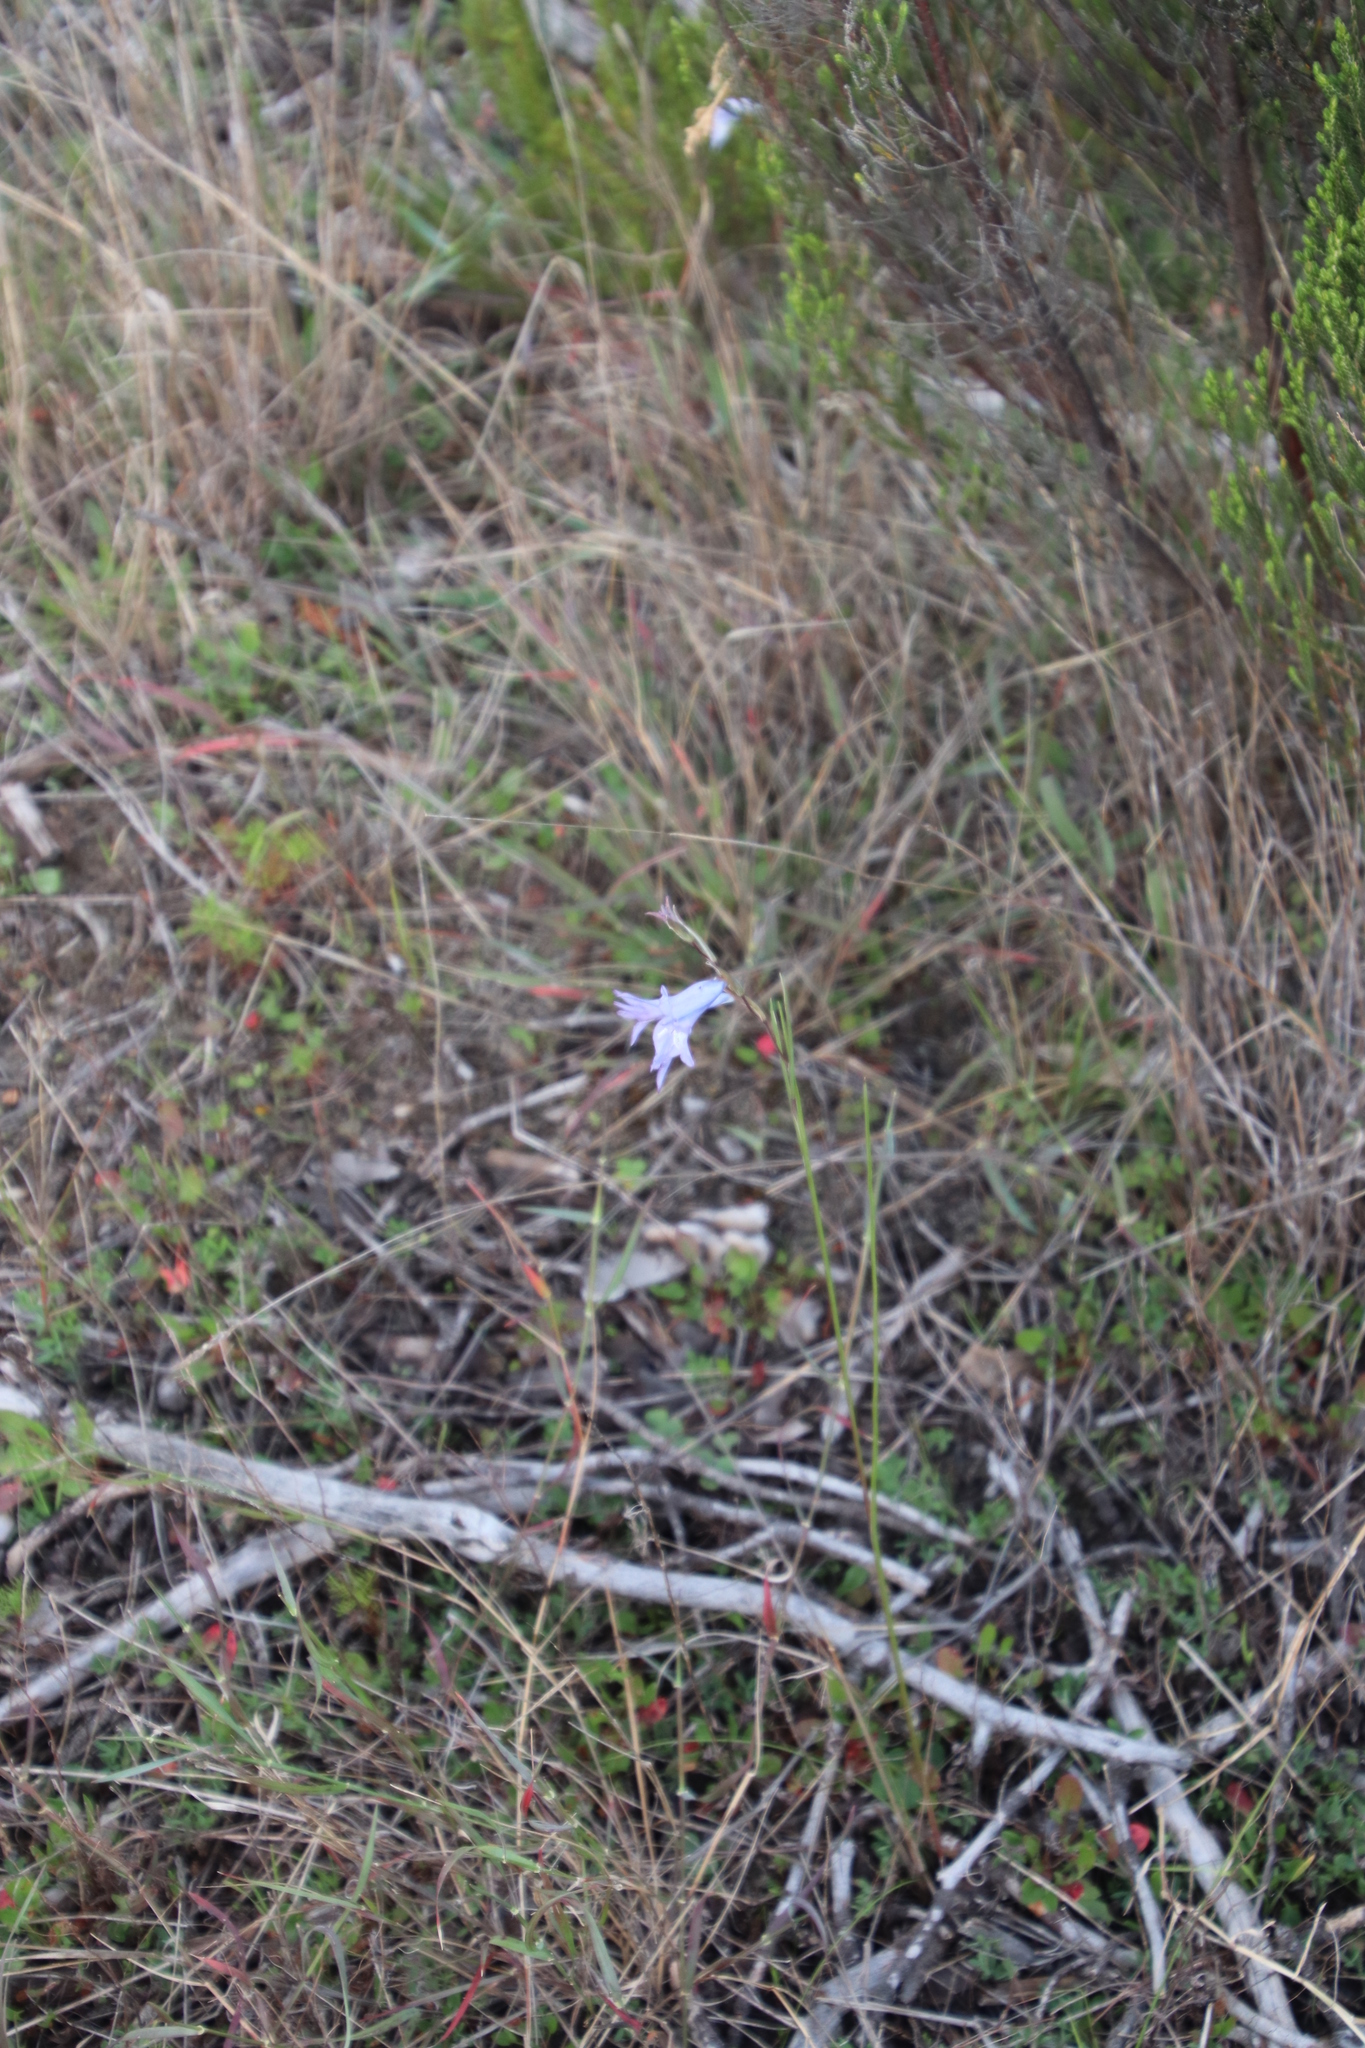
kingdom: Plantae
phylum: Tracheophyta
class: Liliopsida
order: Asparagales
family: Iridaceae
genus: Gladiolus
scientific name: Gladiolus gracilis
